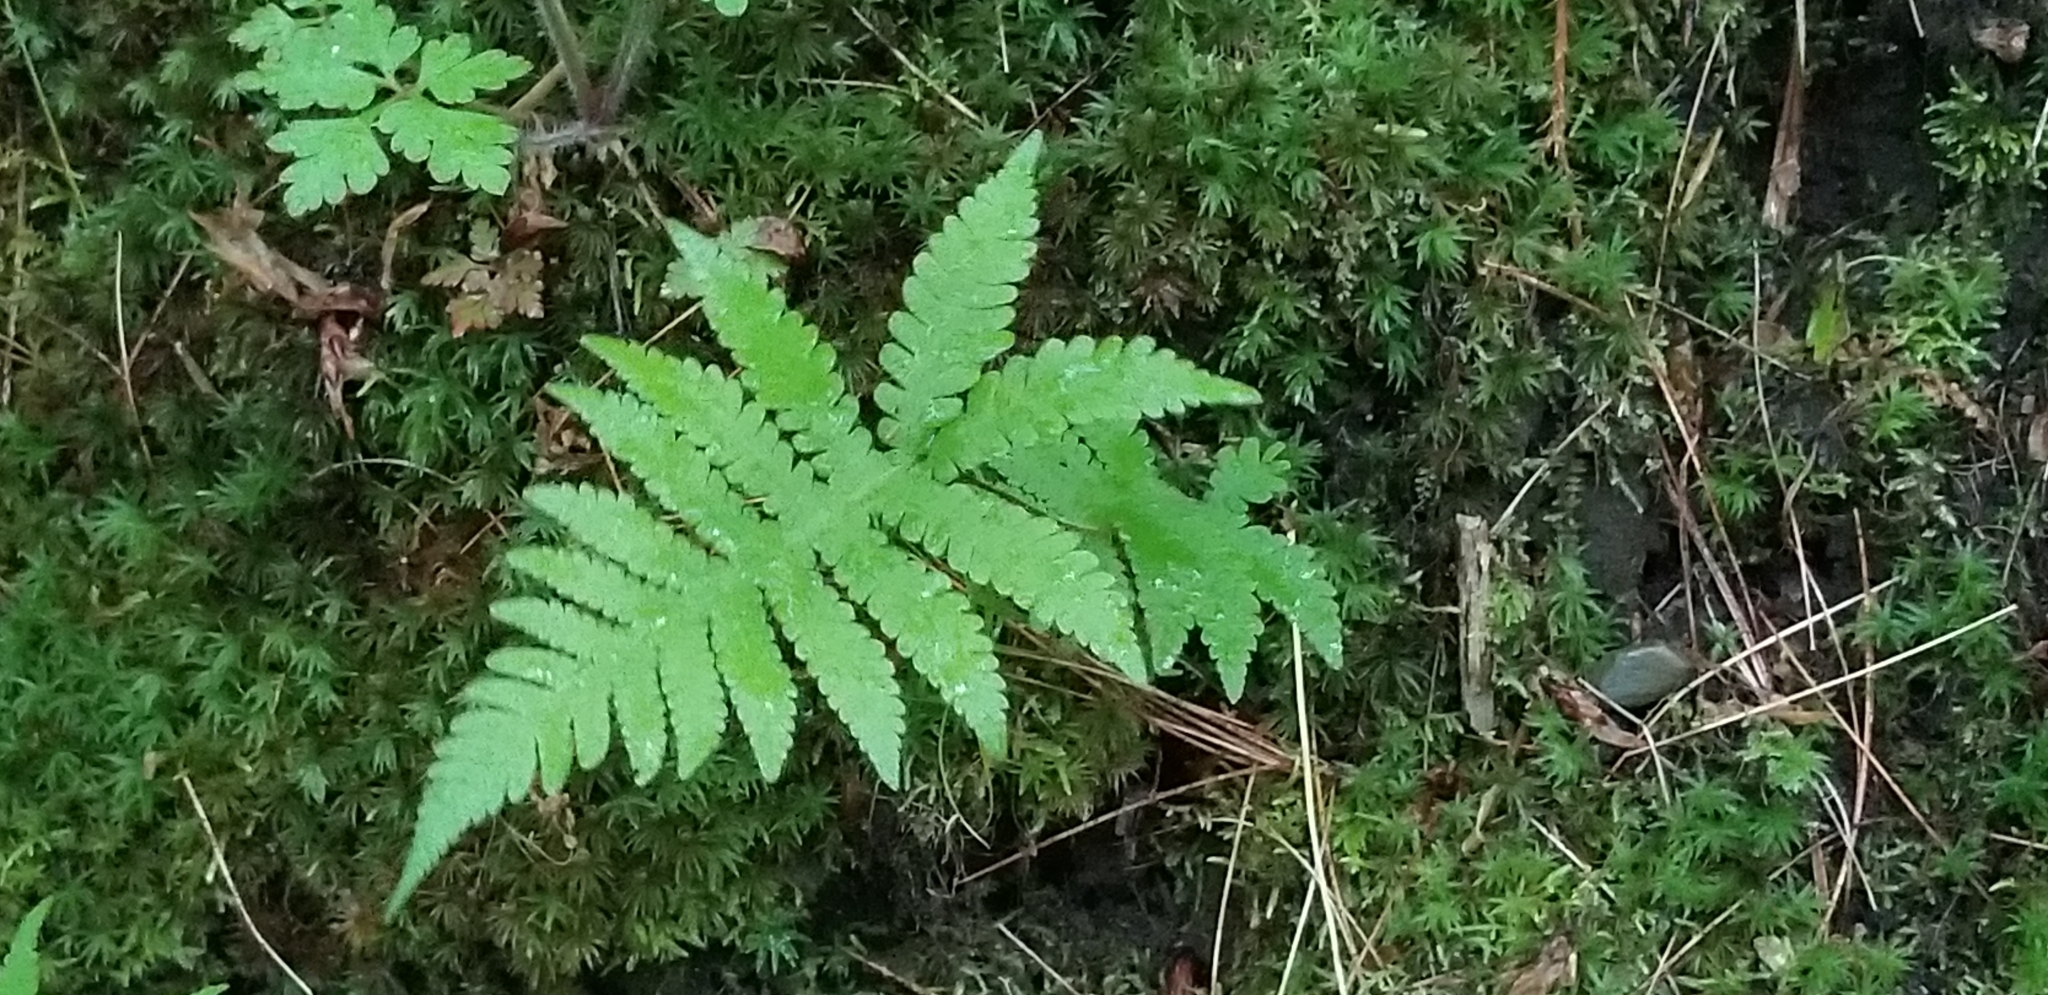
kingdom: Plantae
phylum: Tracheophyta
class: Polypodiopsida
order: Polypodiales
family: Thelypteridaceae
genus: Phegopteris
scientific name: Phegopteris connectilis
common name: Beech fern
